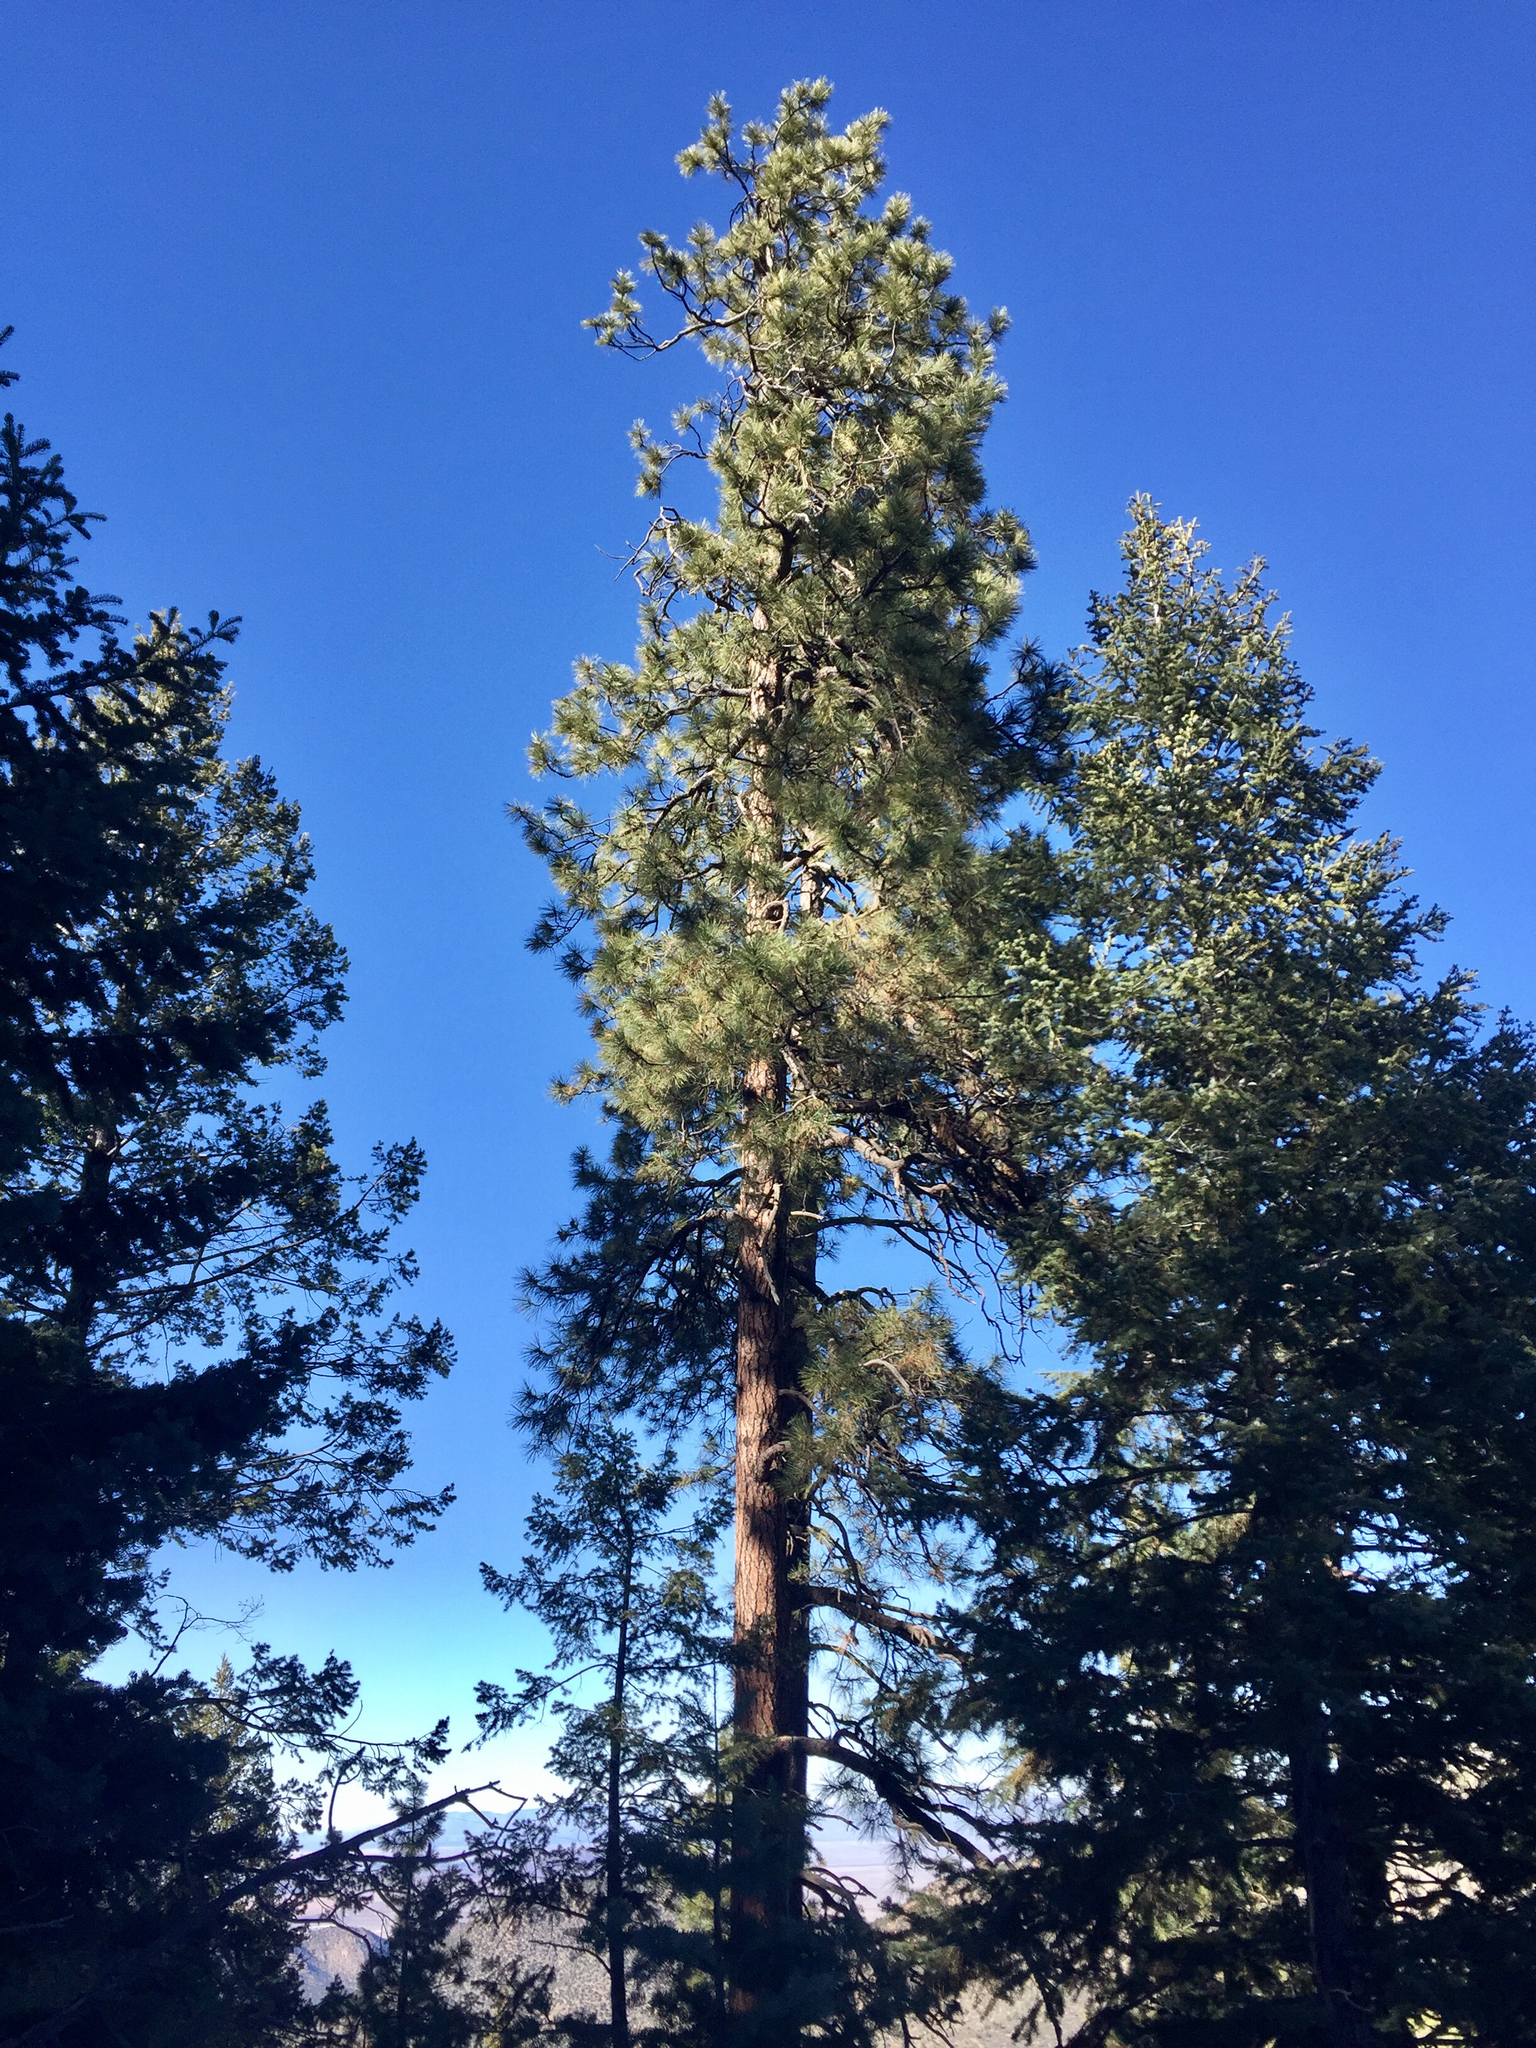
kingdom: Plantae
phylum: Tracheophyta
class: Pinopsida
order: Pinales
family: Pinaceae
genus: Pinus
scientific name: Pinus ponderosa
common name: Western yellow-pine
